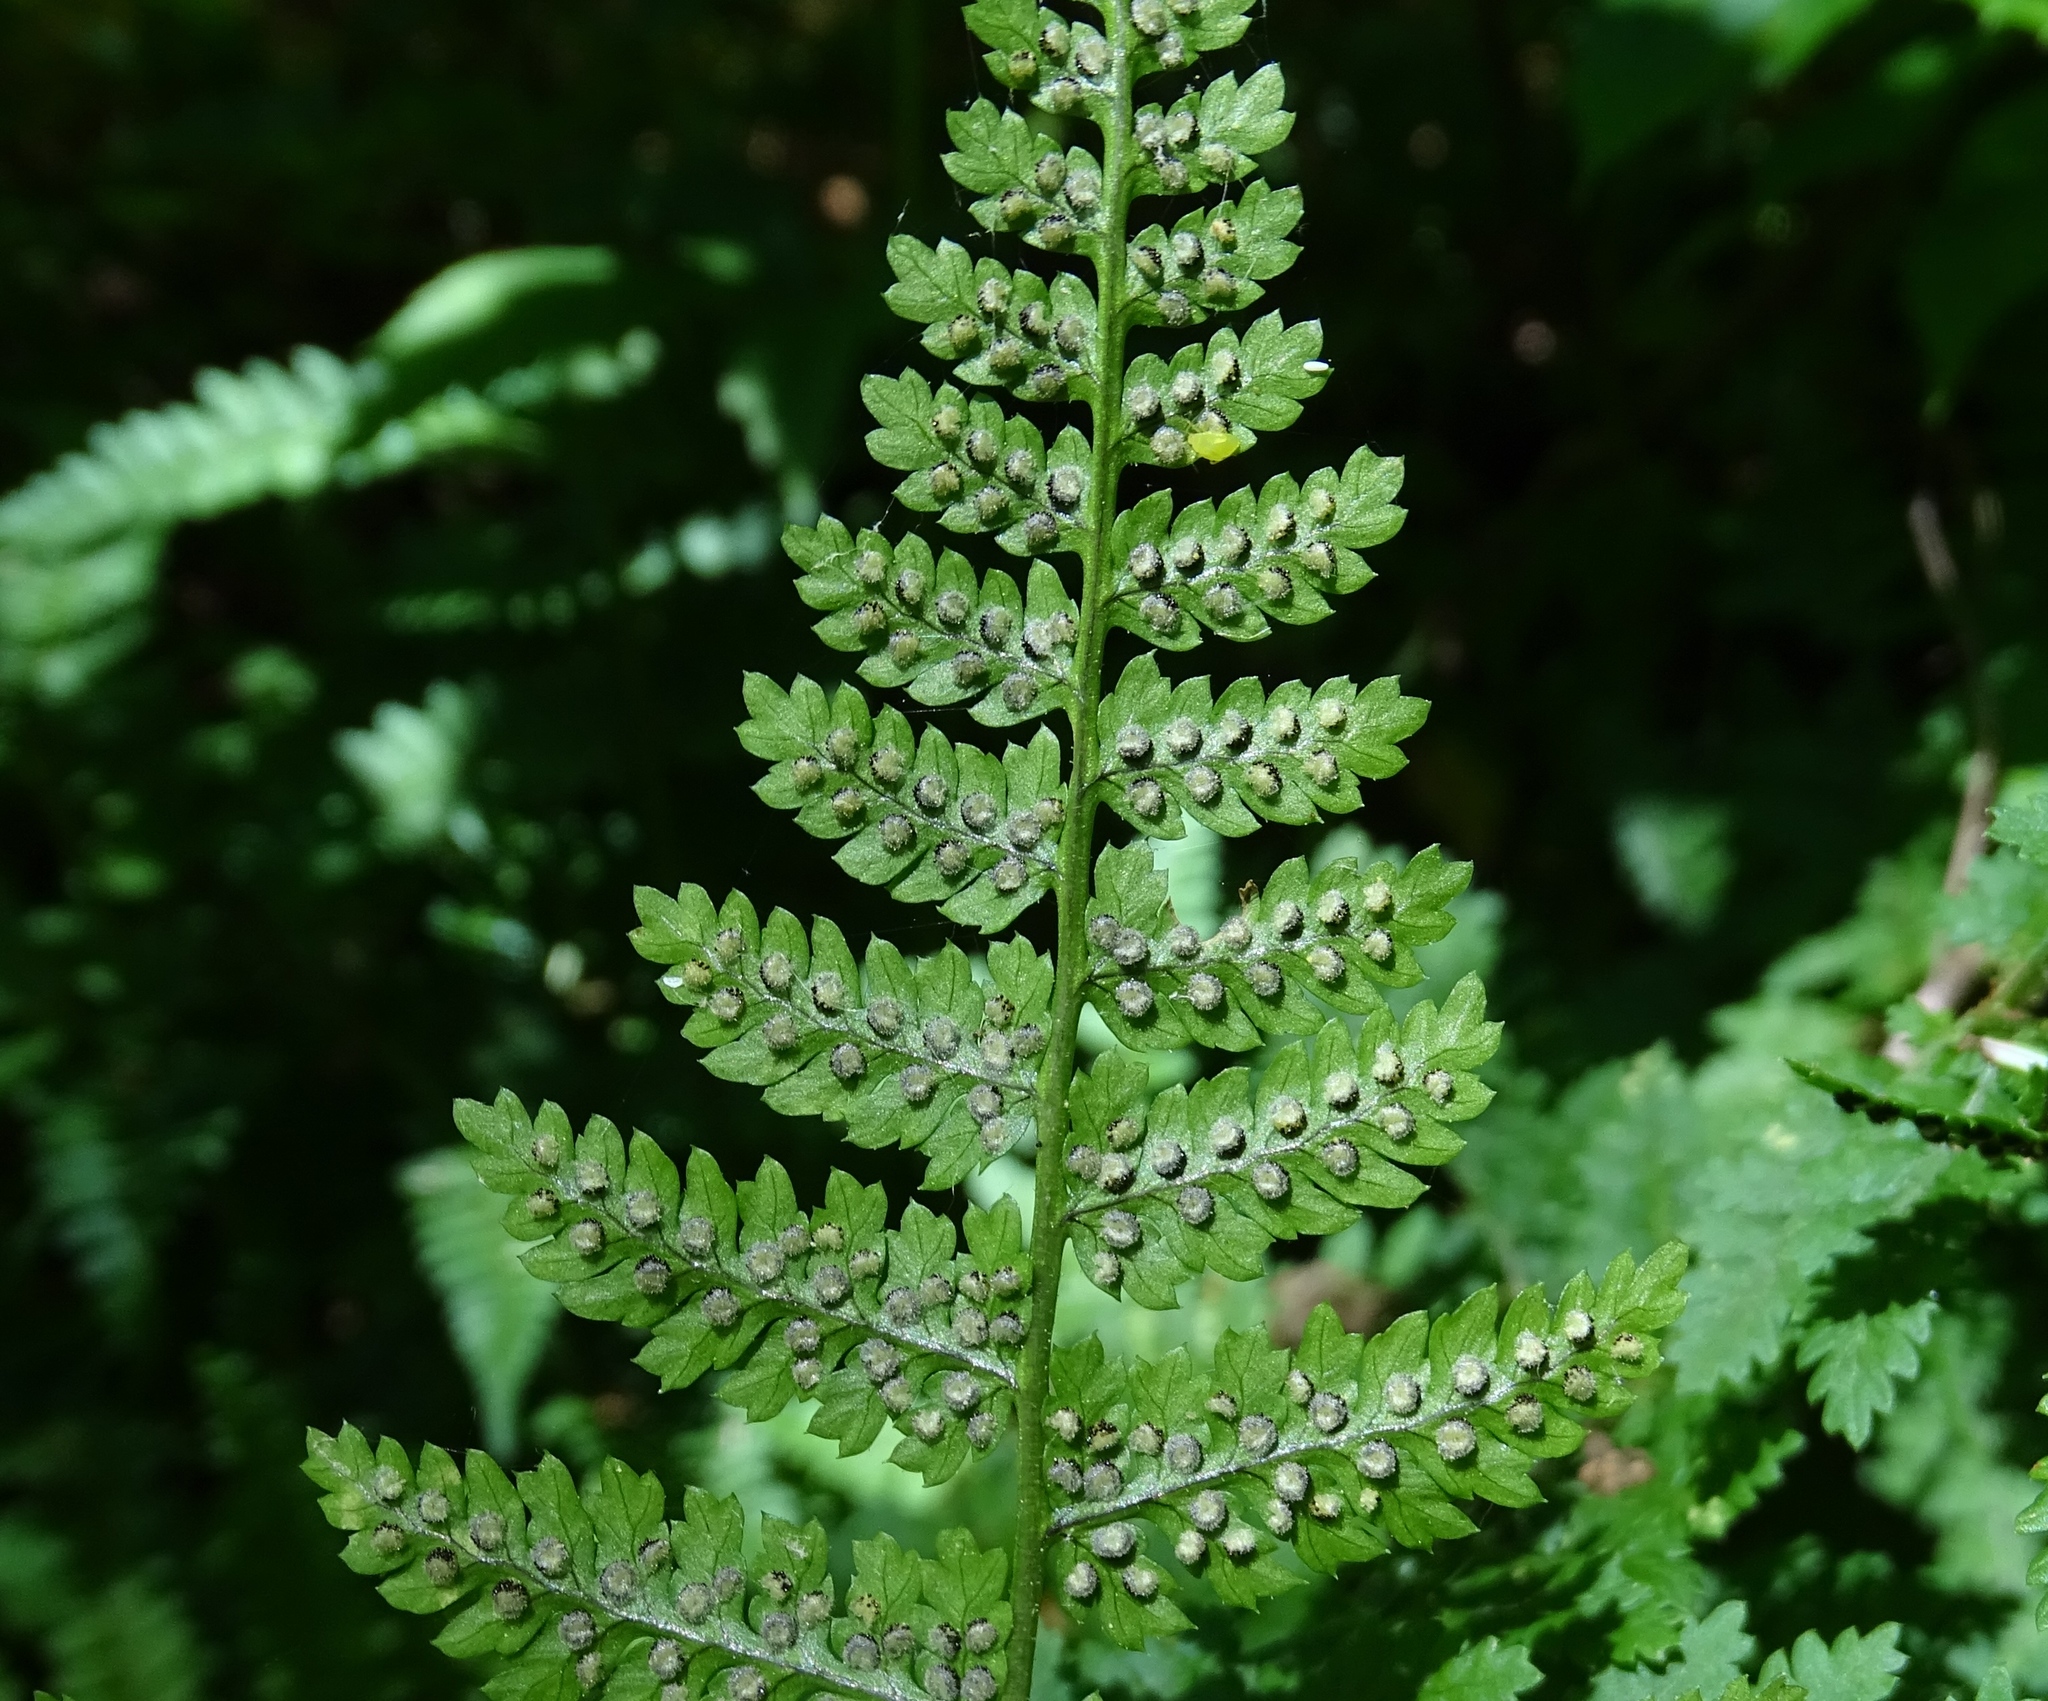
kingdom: Plantae
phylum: Tracheophyta
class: Polypodiopsida
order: Polypodiales
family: Dryopteridaceae
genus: Dryopteris
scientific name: Dryopteris intermedia
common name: Evergreen wood fern
